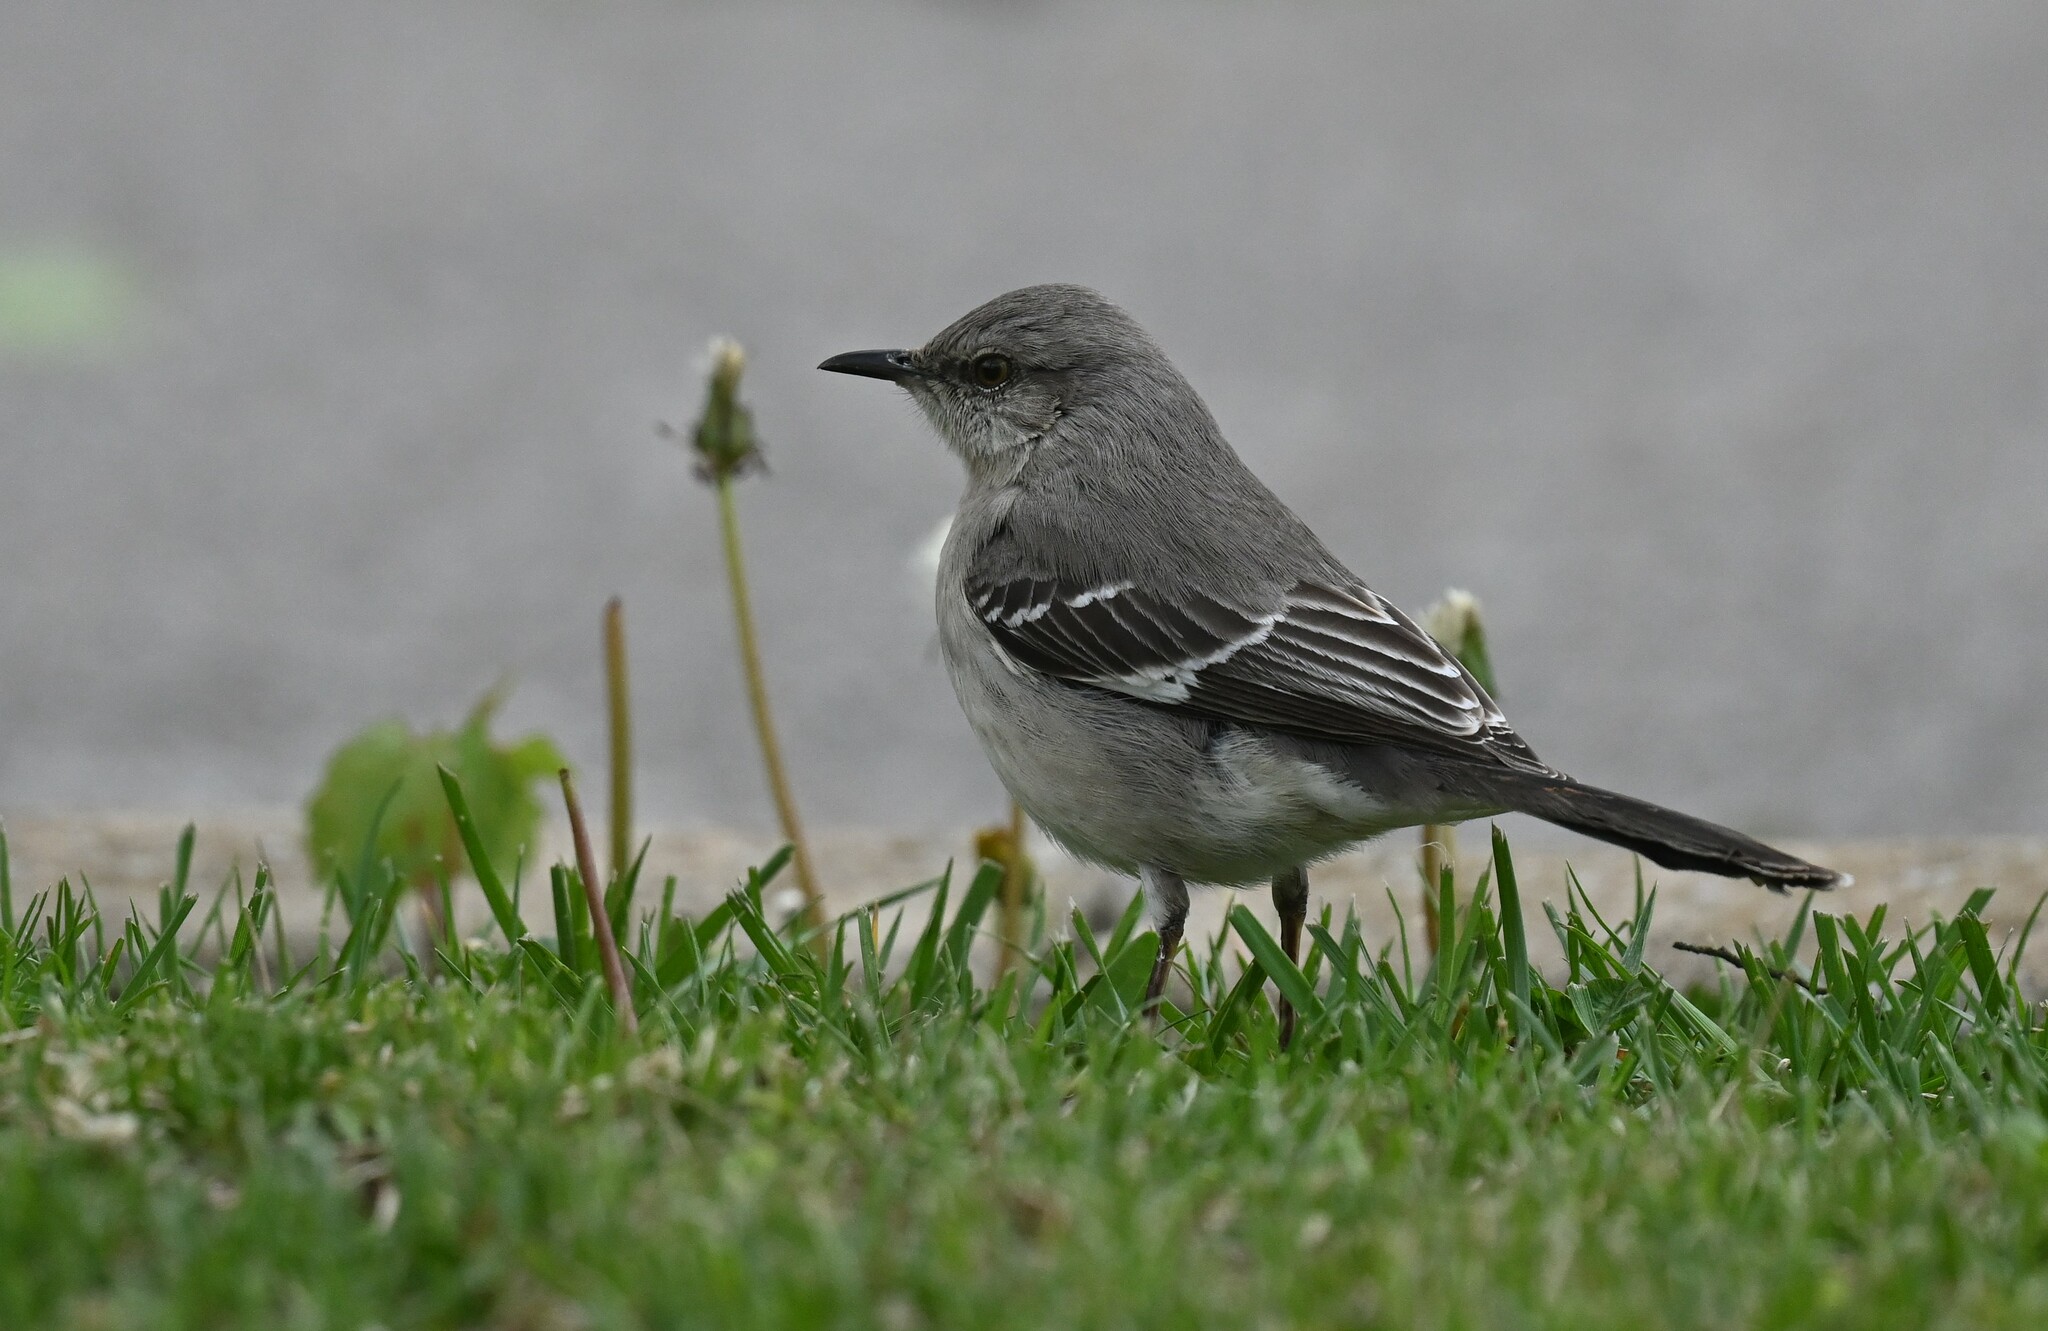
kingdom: Animalia
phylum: Chordata
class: Aves
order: Passeriformes
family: Mimidae
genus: Mimus
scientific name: Mimus polyglottos
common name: Northern mockingbird
